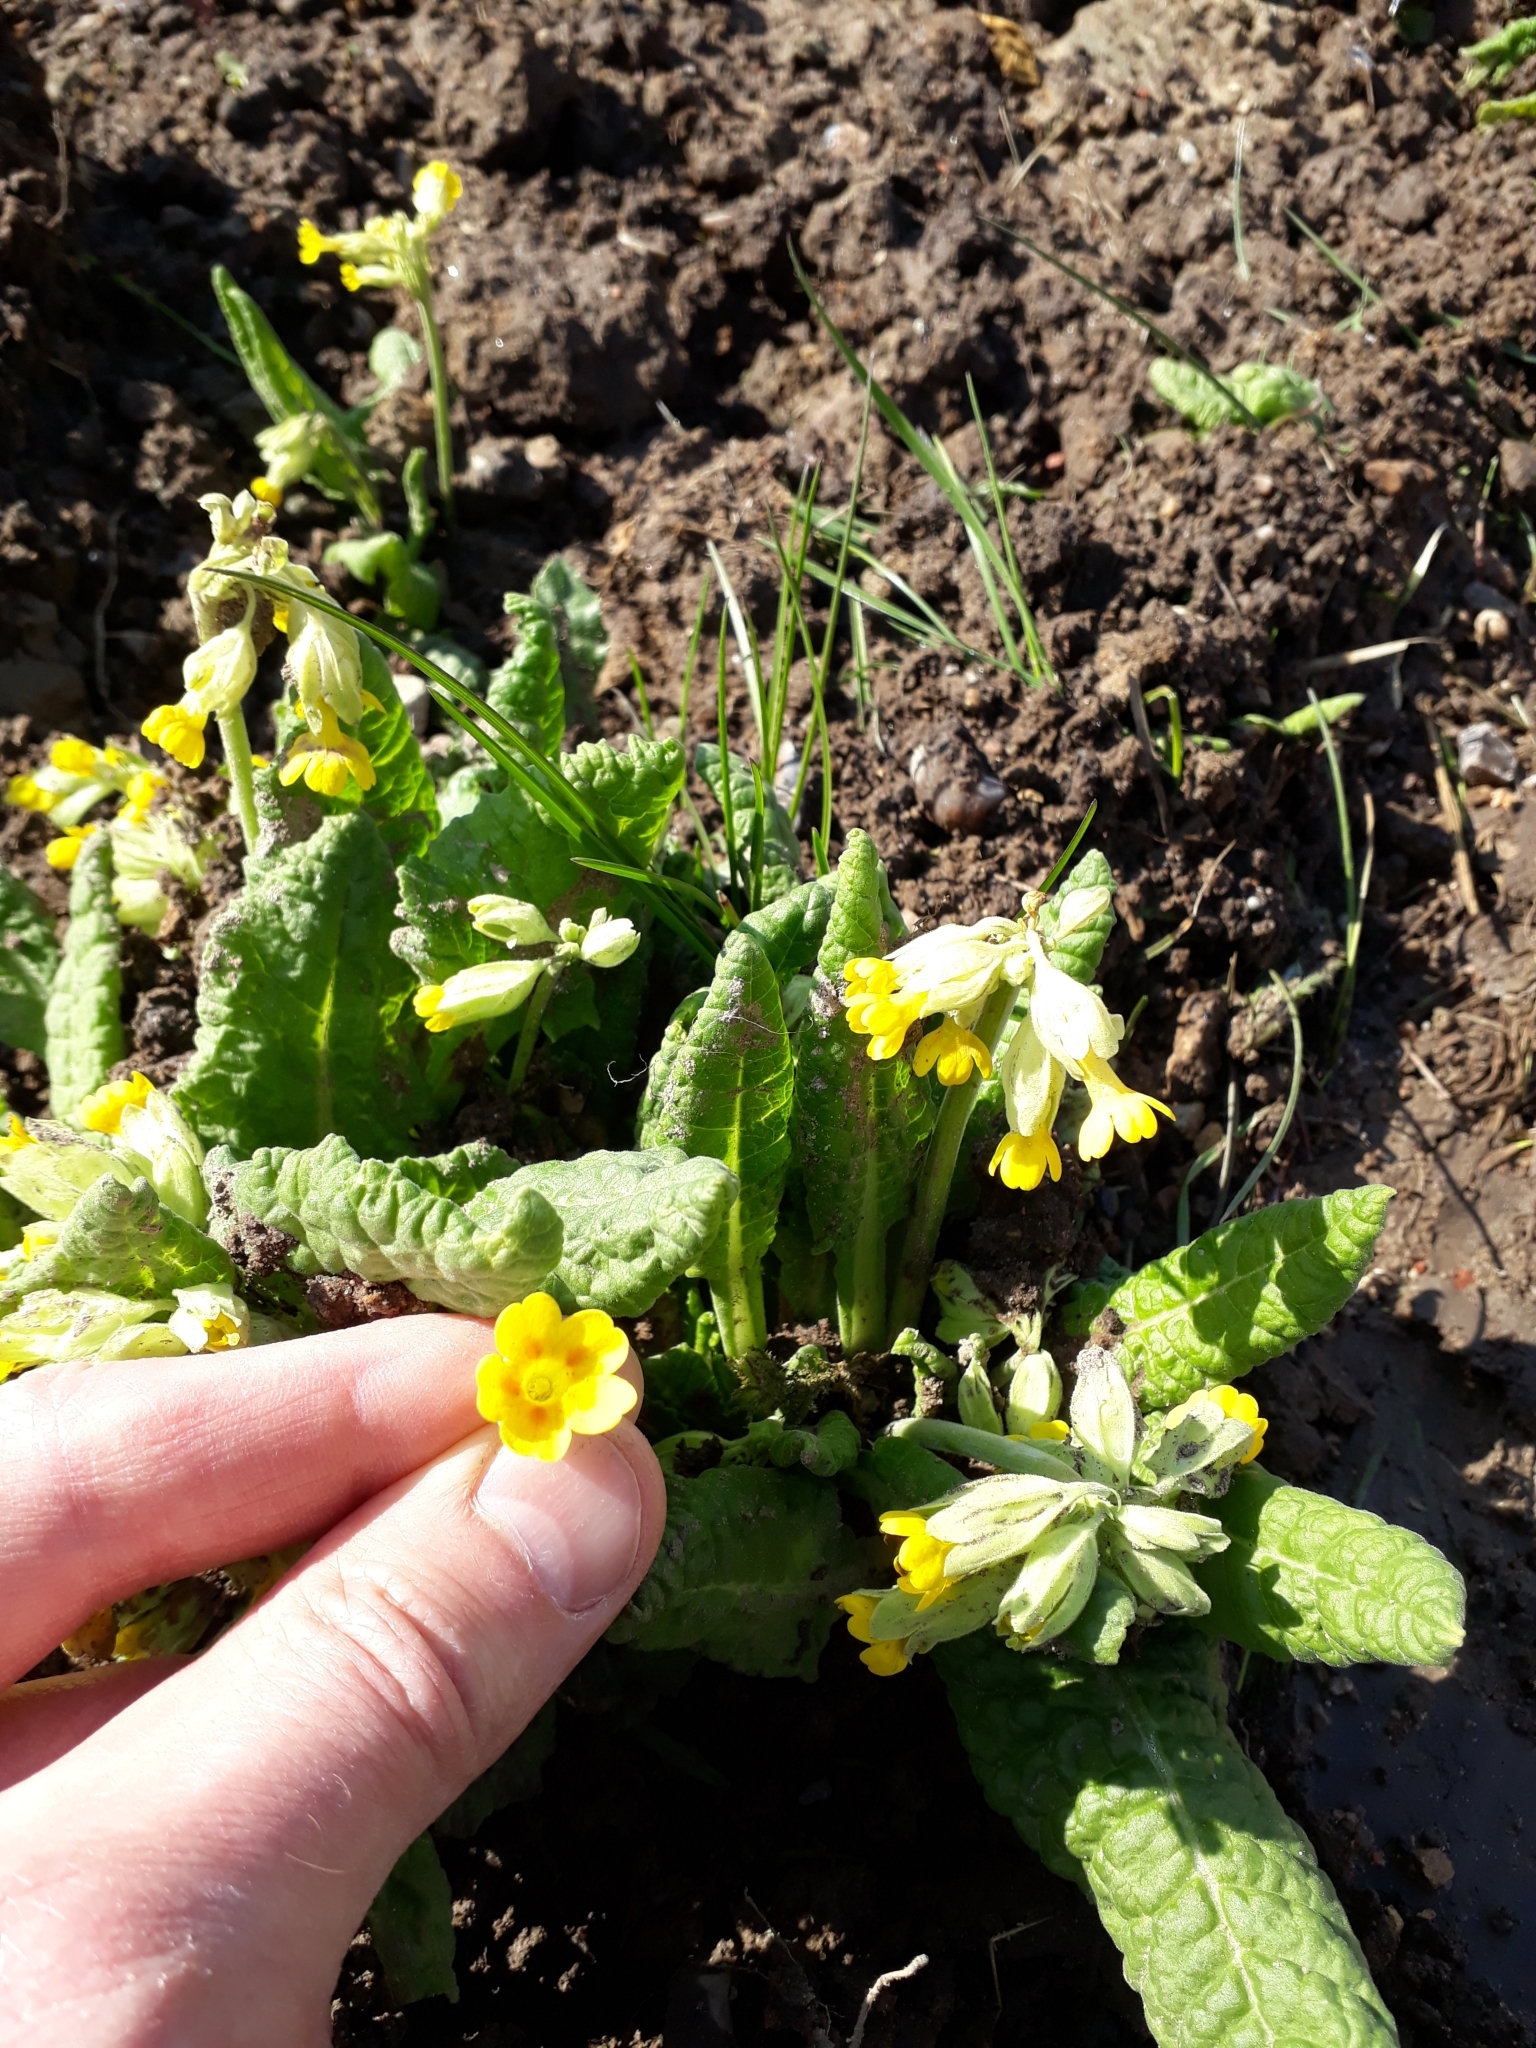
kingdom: Plantae
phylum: Tracheophyta
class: Magnoliopsida
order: Ericales
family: Primulaceae
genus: Primula
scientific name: Primula veris
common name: Cowslip
